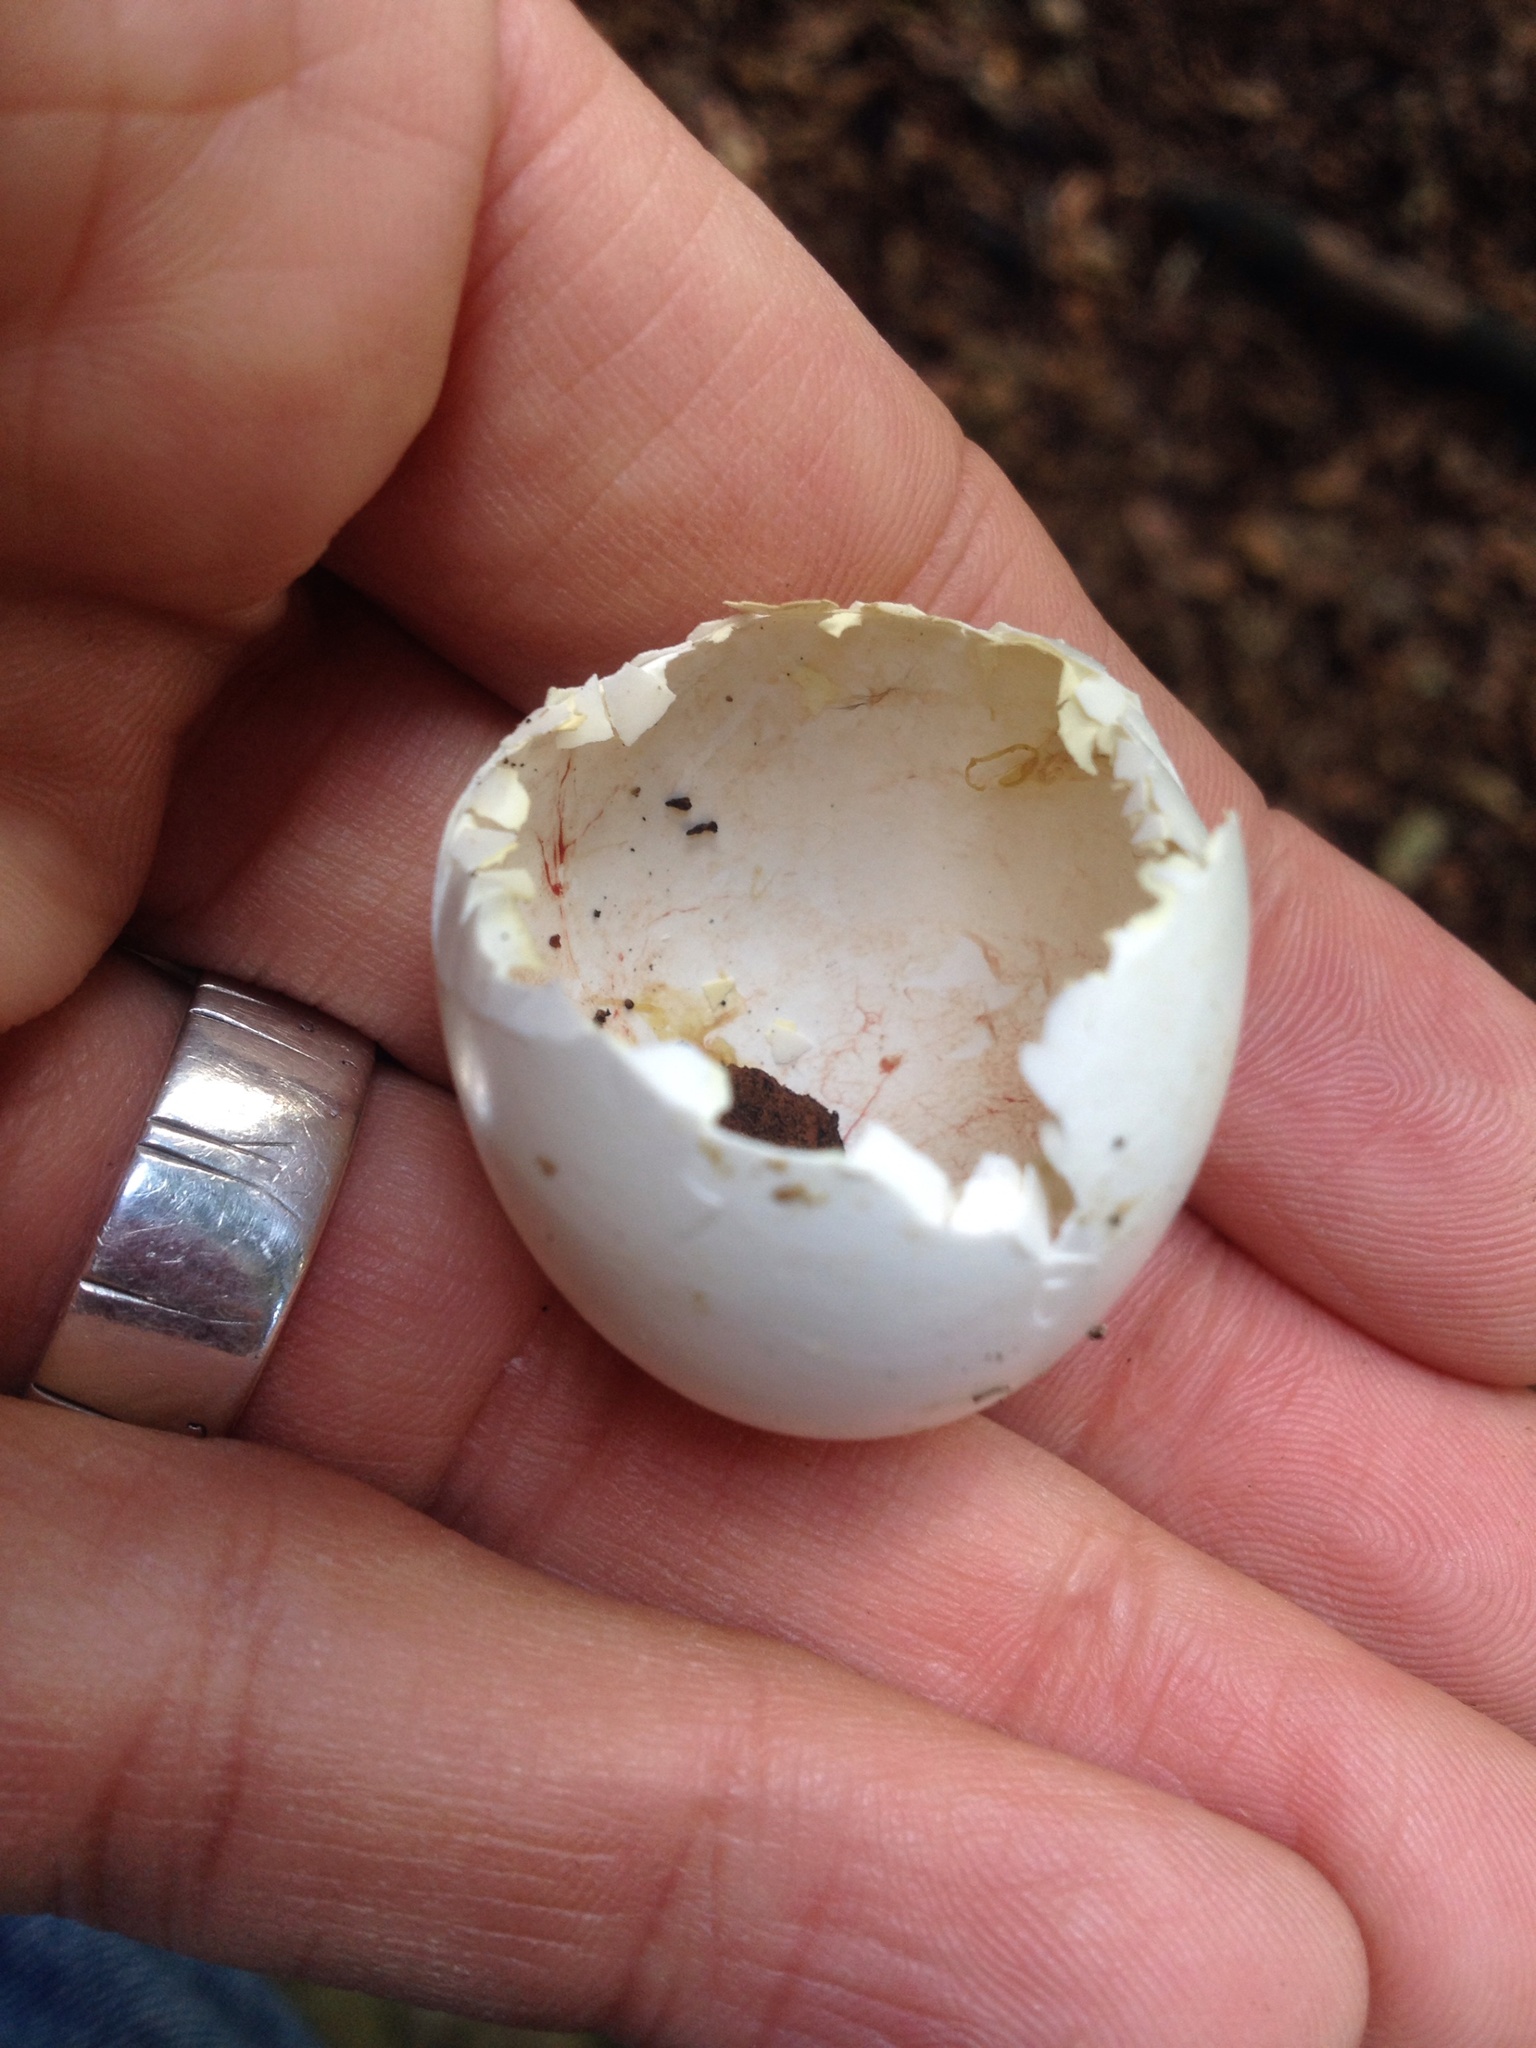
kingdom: Animalia
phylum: Chordata
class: Aves
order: Columbiformes
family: Columbidae
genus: Columba
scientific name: Columba livia
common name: Rock pigeon
